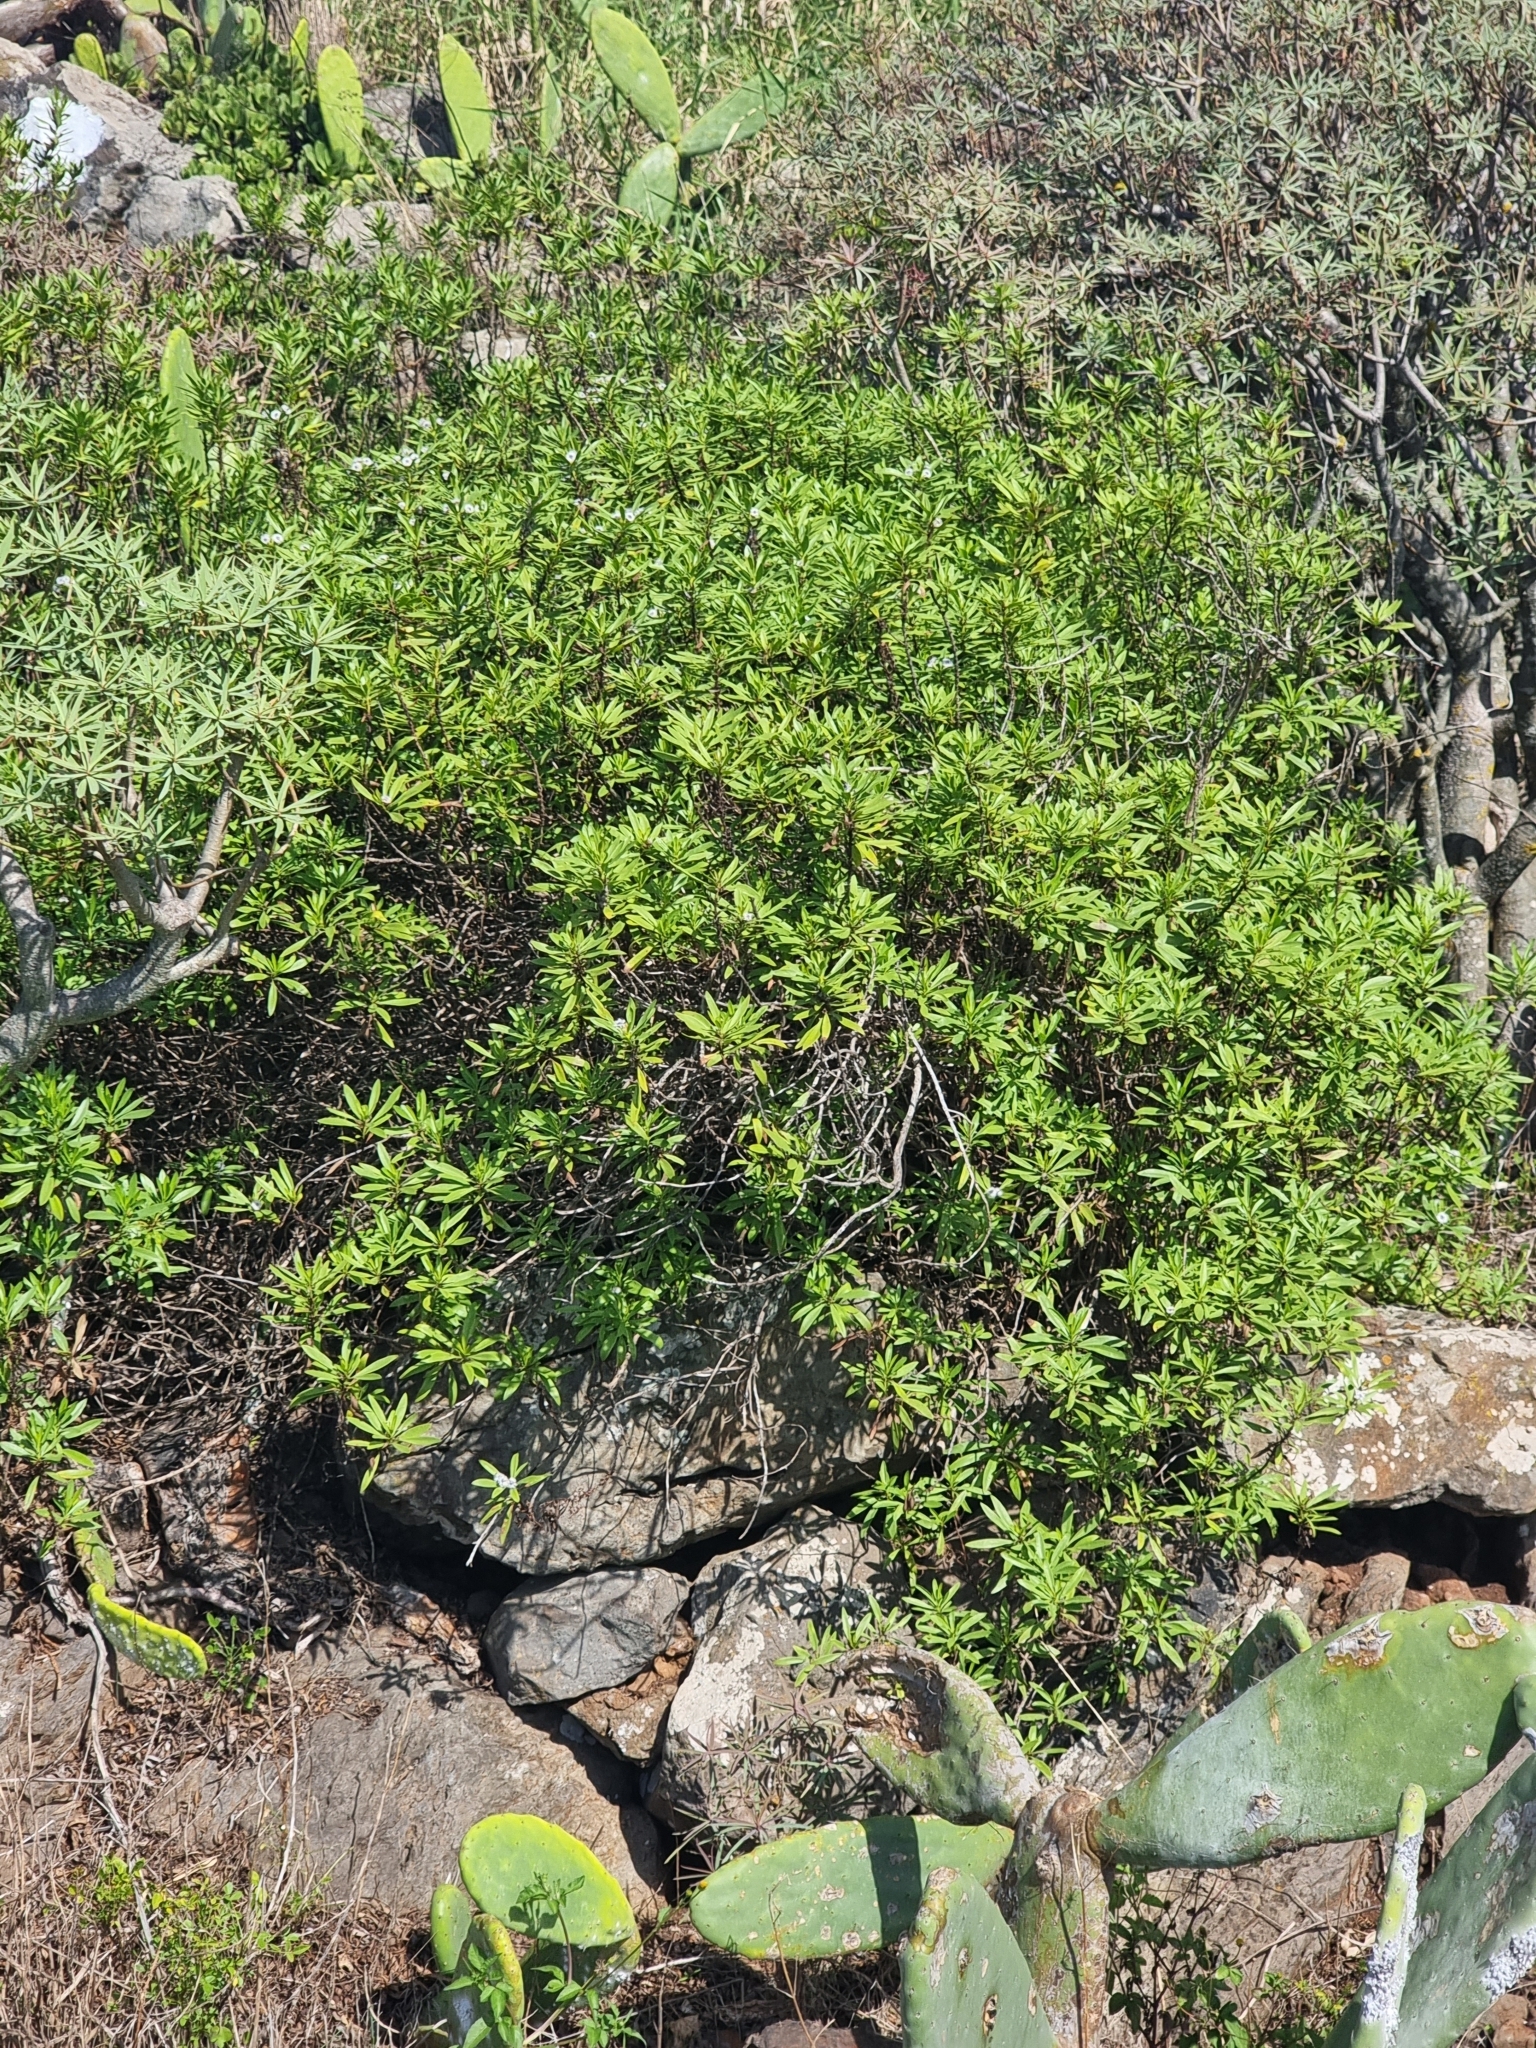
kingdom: Plantae
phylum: Tracheophyta
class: Magnoliopsida
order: Lamiales
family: Plantaginaceae
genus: Globularia
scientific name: Globularia salicina
